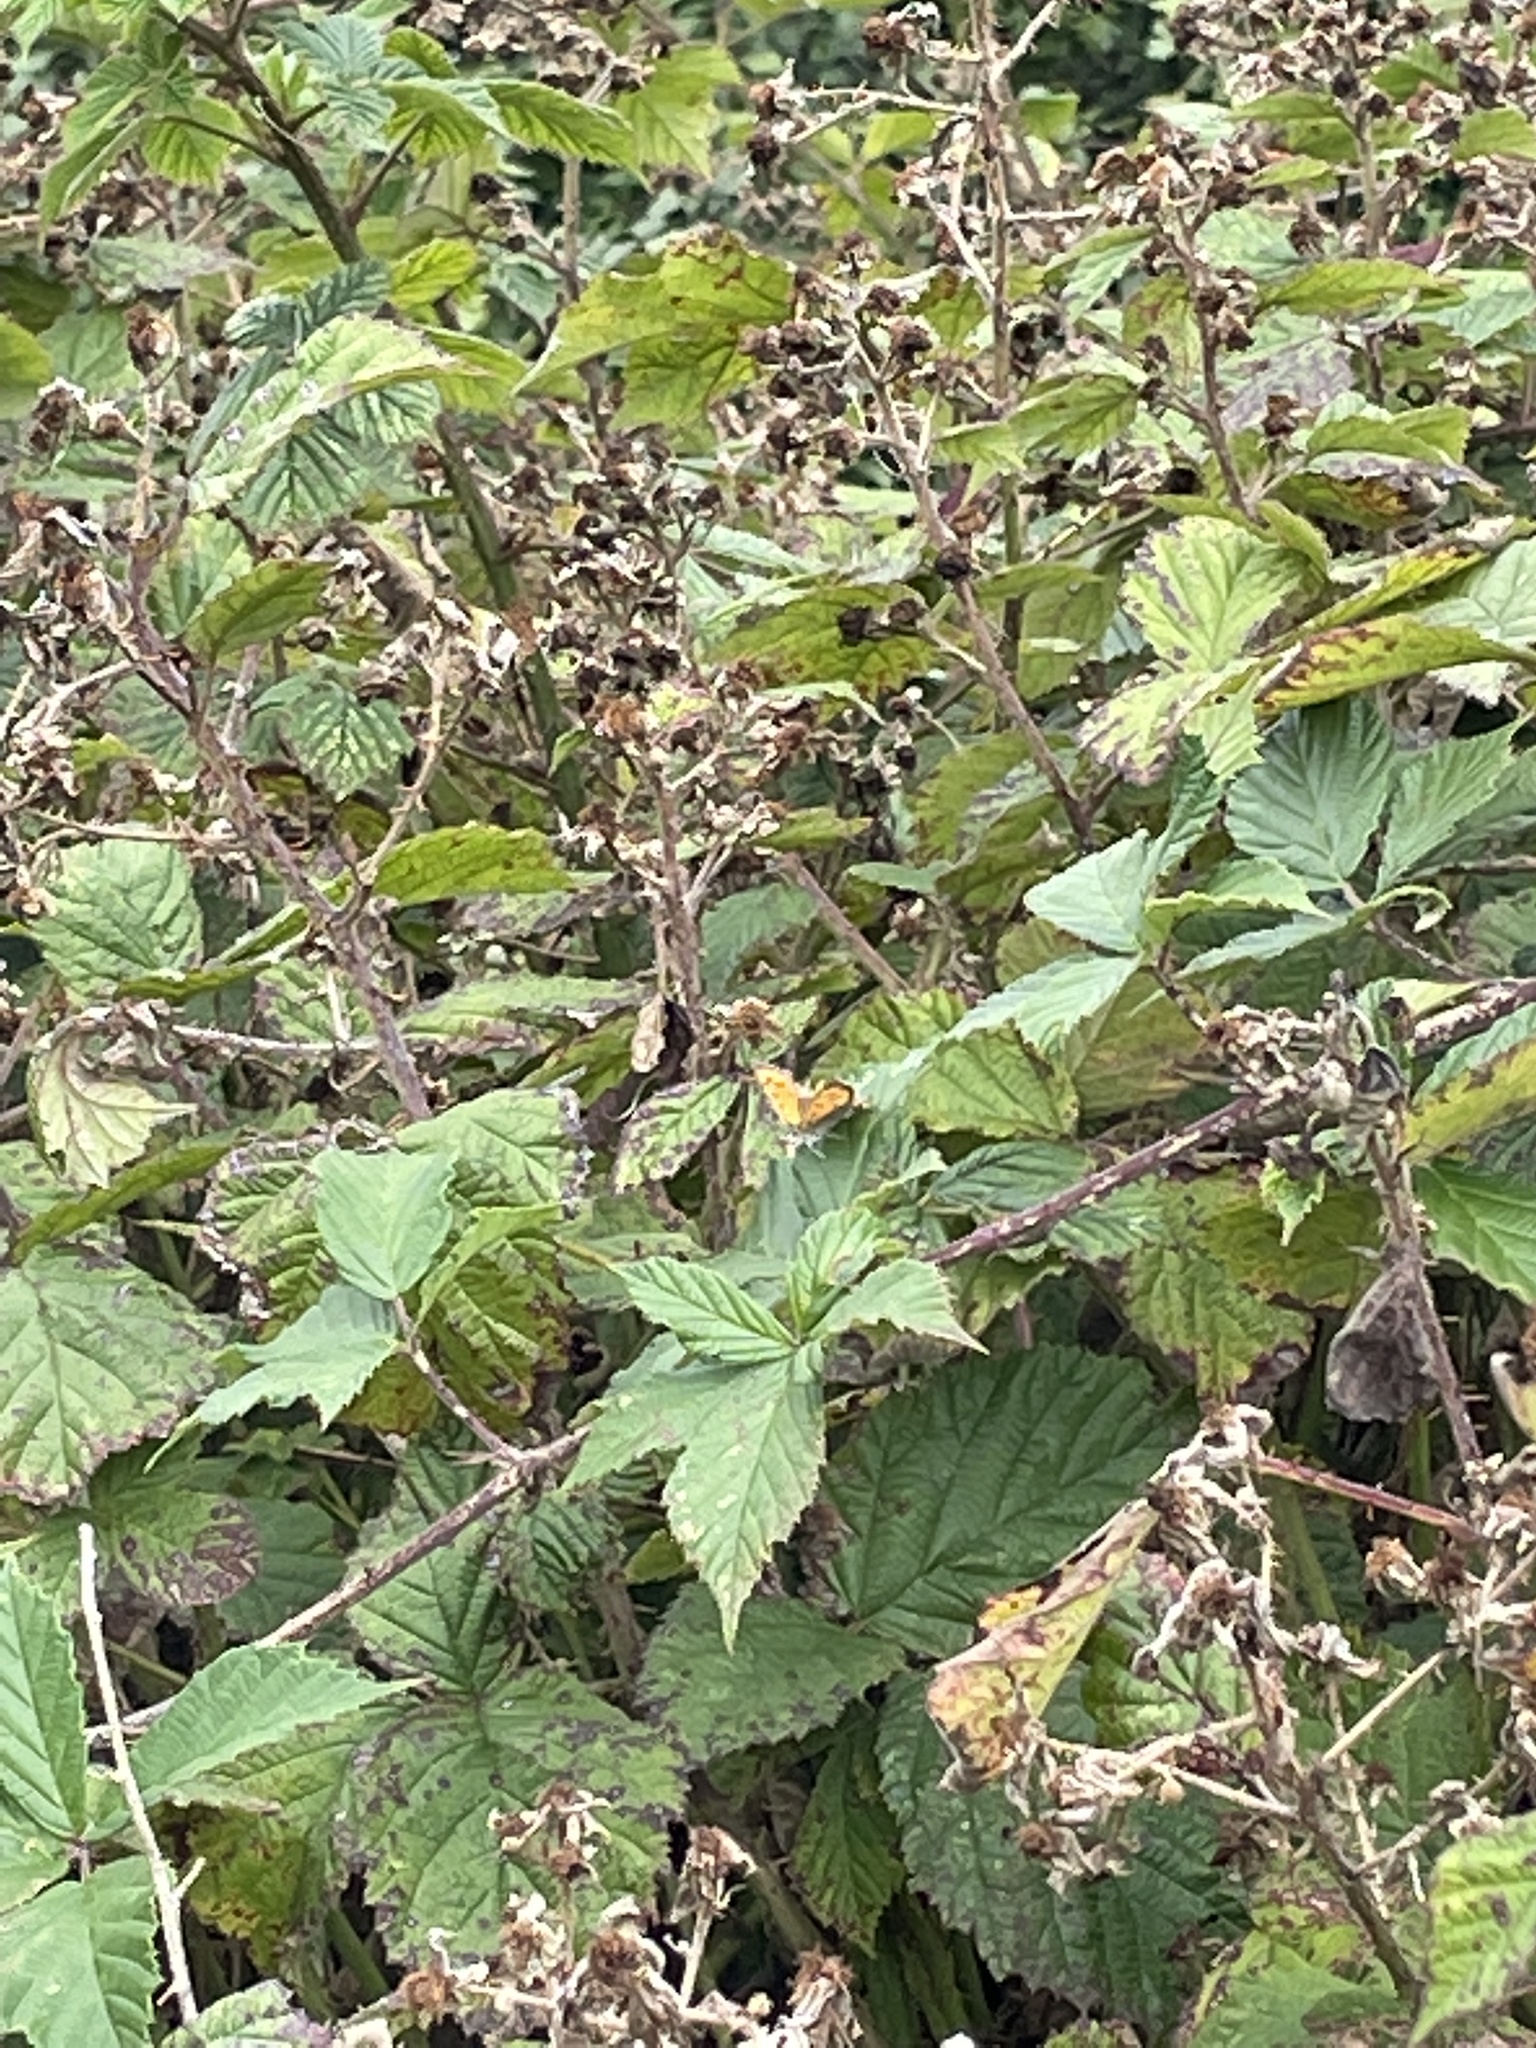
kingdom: Animalia
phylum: Arthropoda
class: Insecta
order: Lepidoptera
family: Lycaenidae
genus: Lycaena
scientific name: Lycaena phlaeas
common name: Small copper
